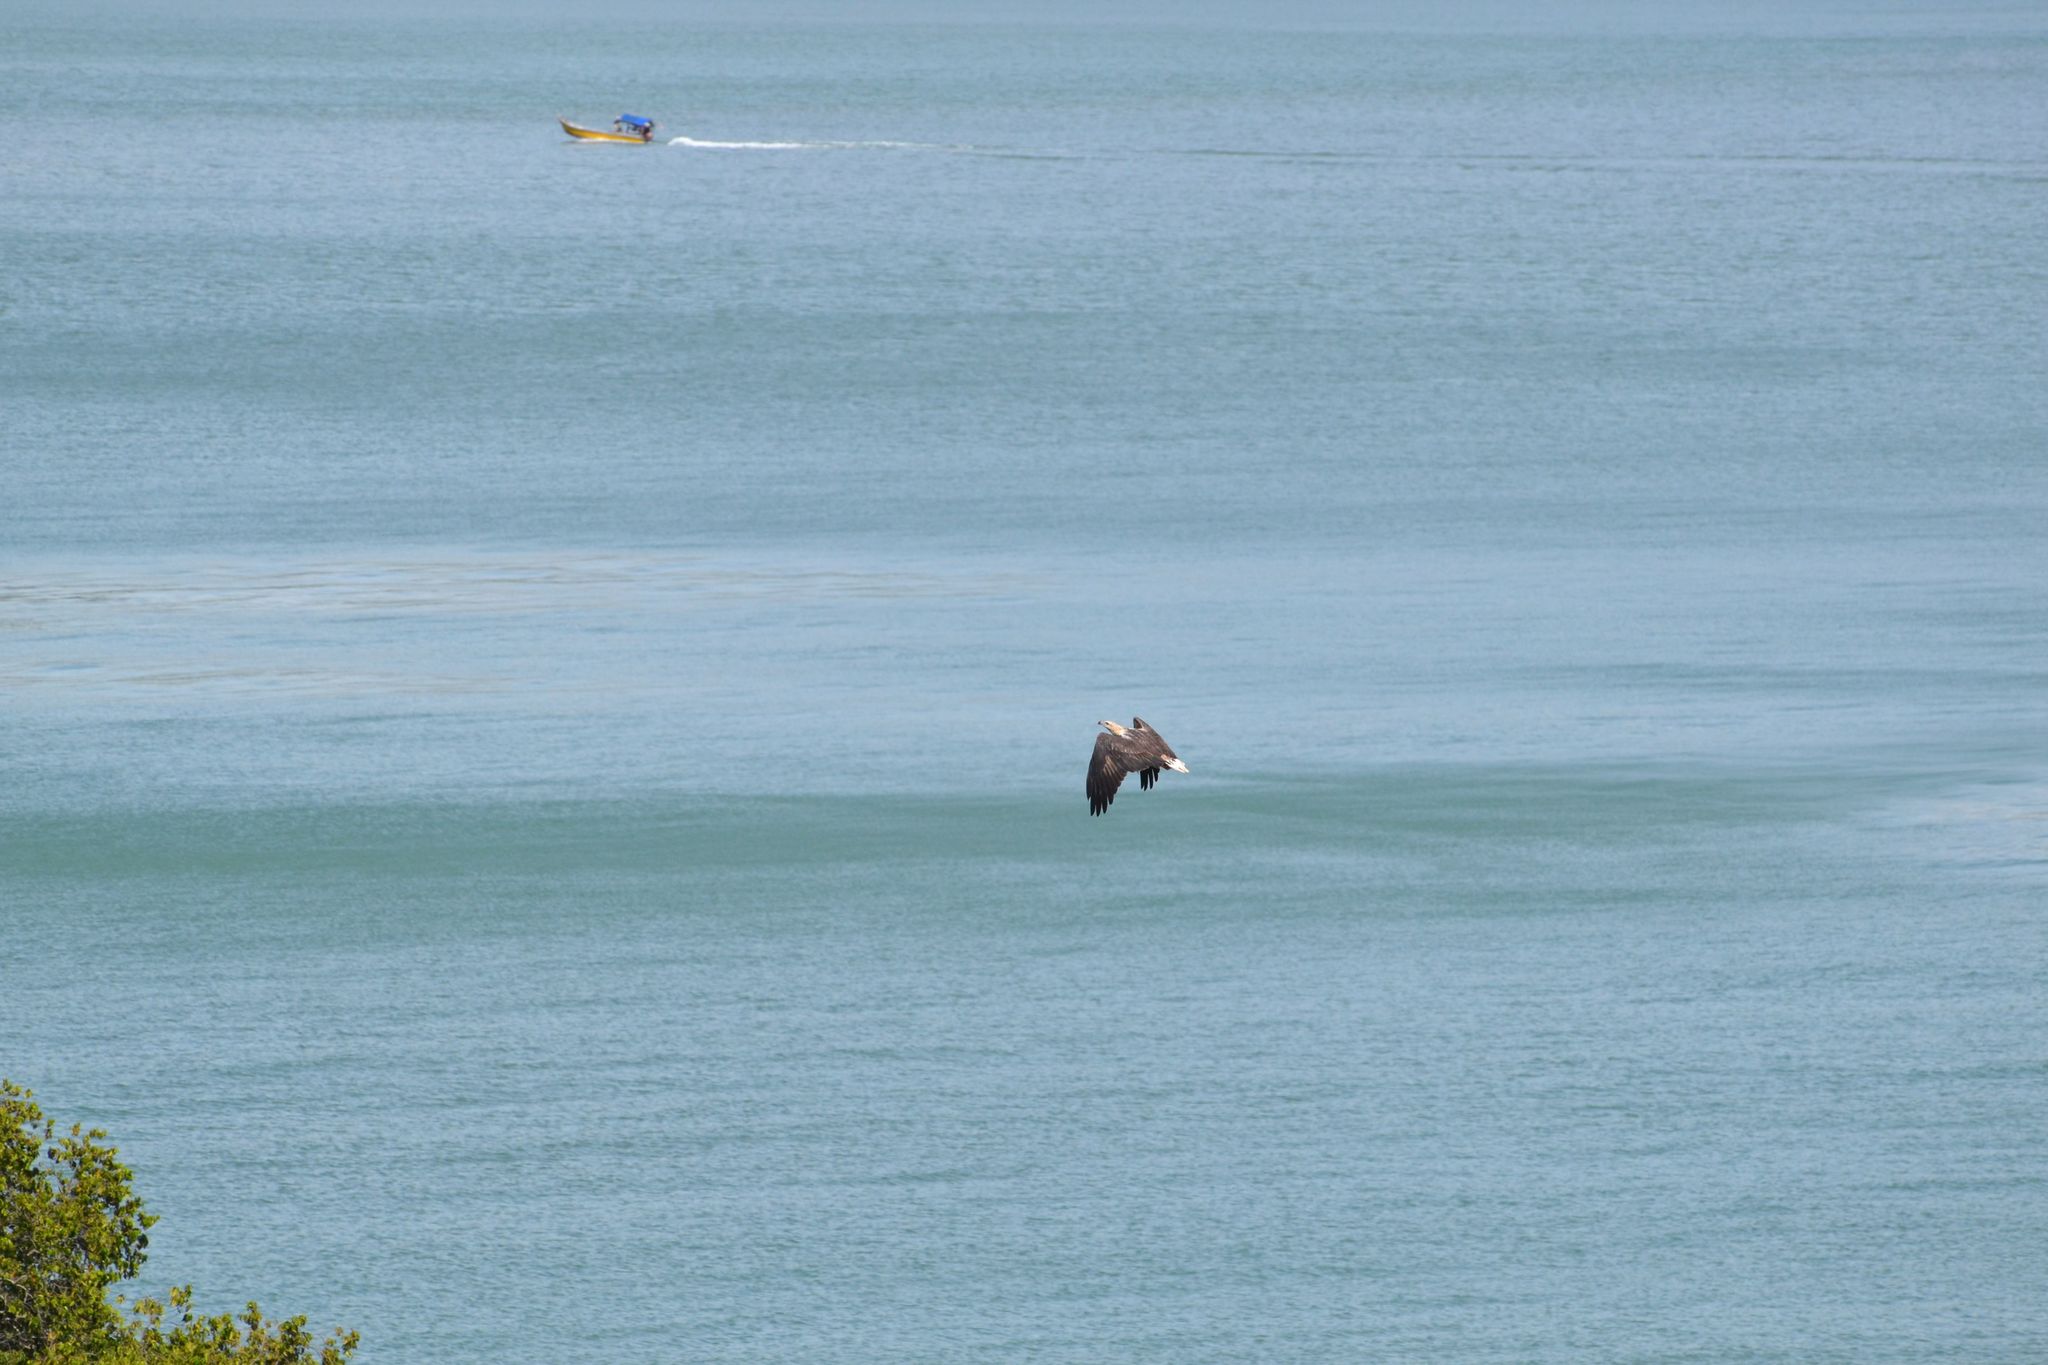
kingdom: Animalia
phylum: Chordata
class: Aves
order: Accipitriformes
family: Accipitridae
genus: Haliaeetus
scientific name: Haliaeetus leucogaster
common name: White-bellied sea eagle
